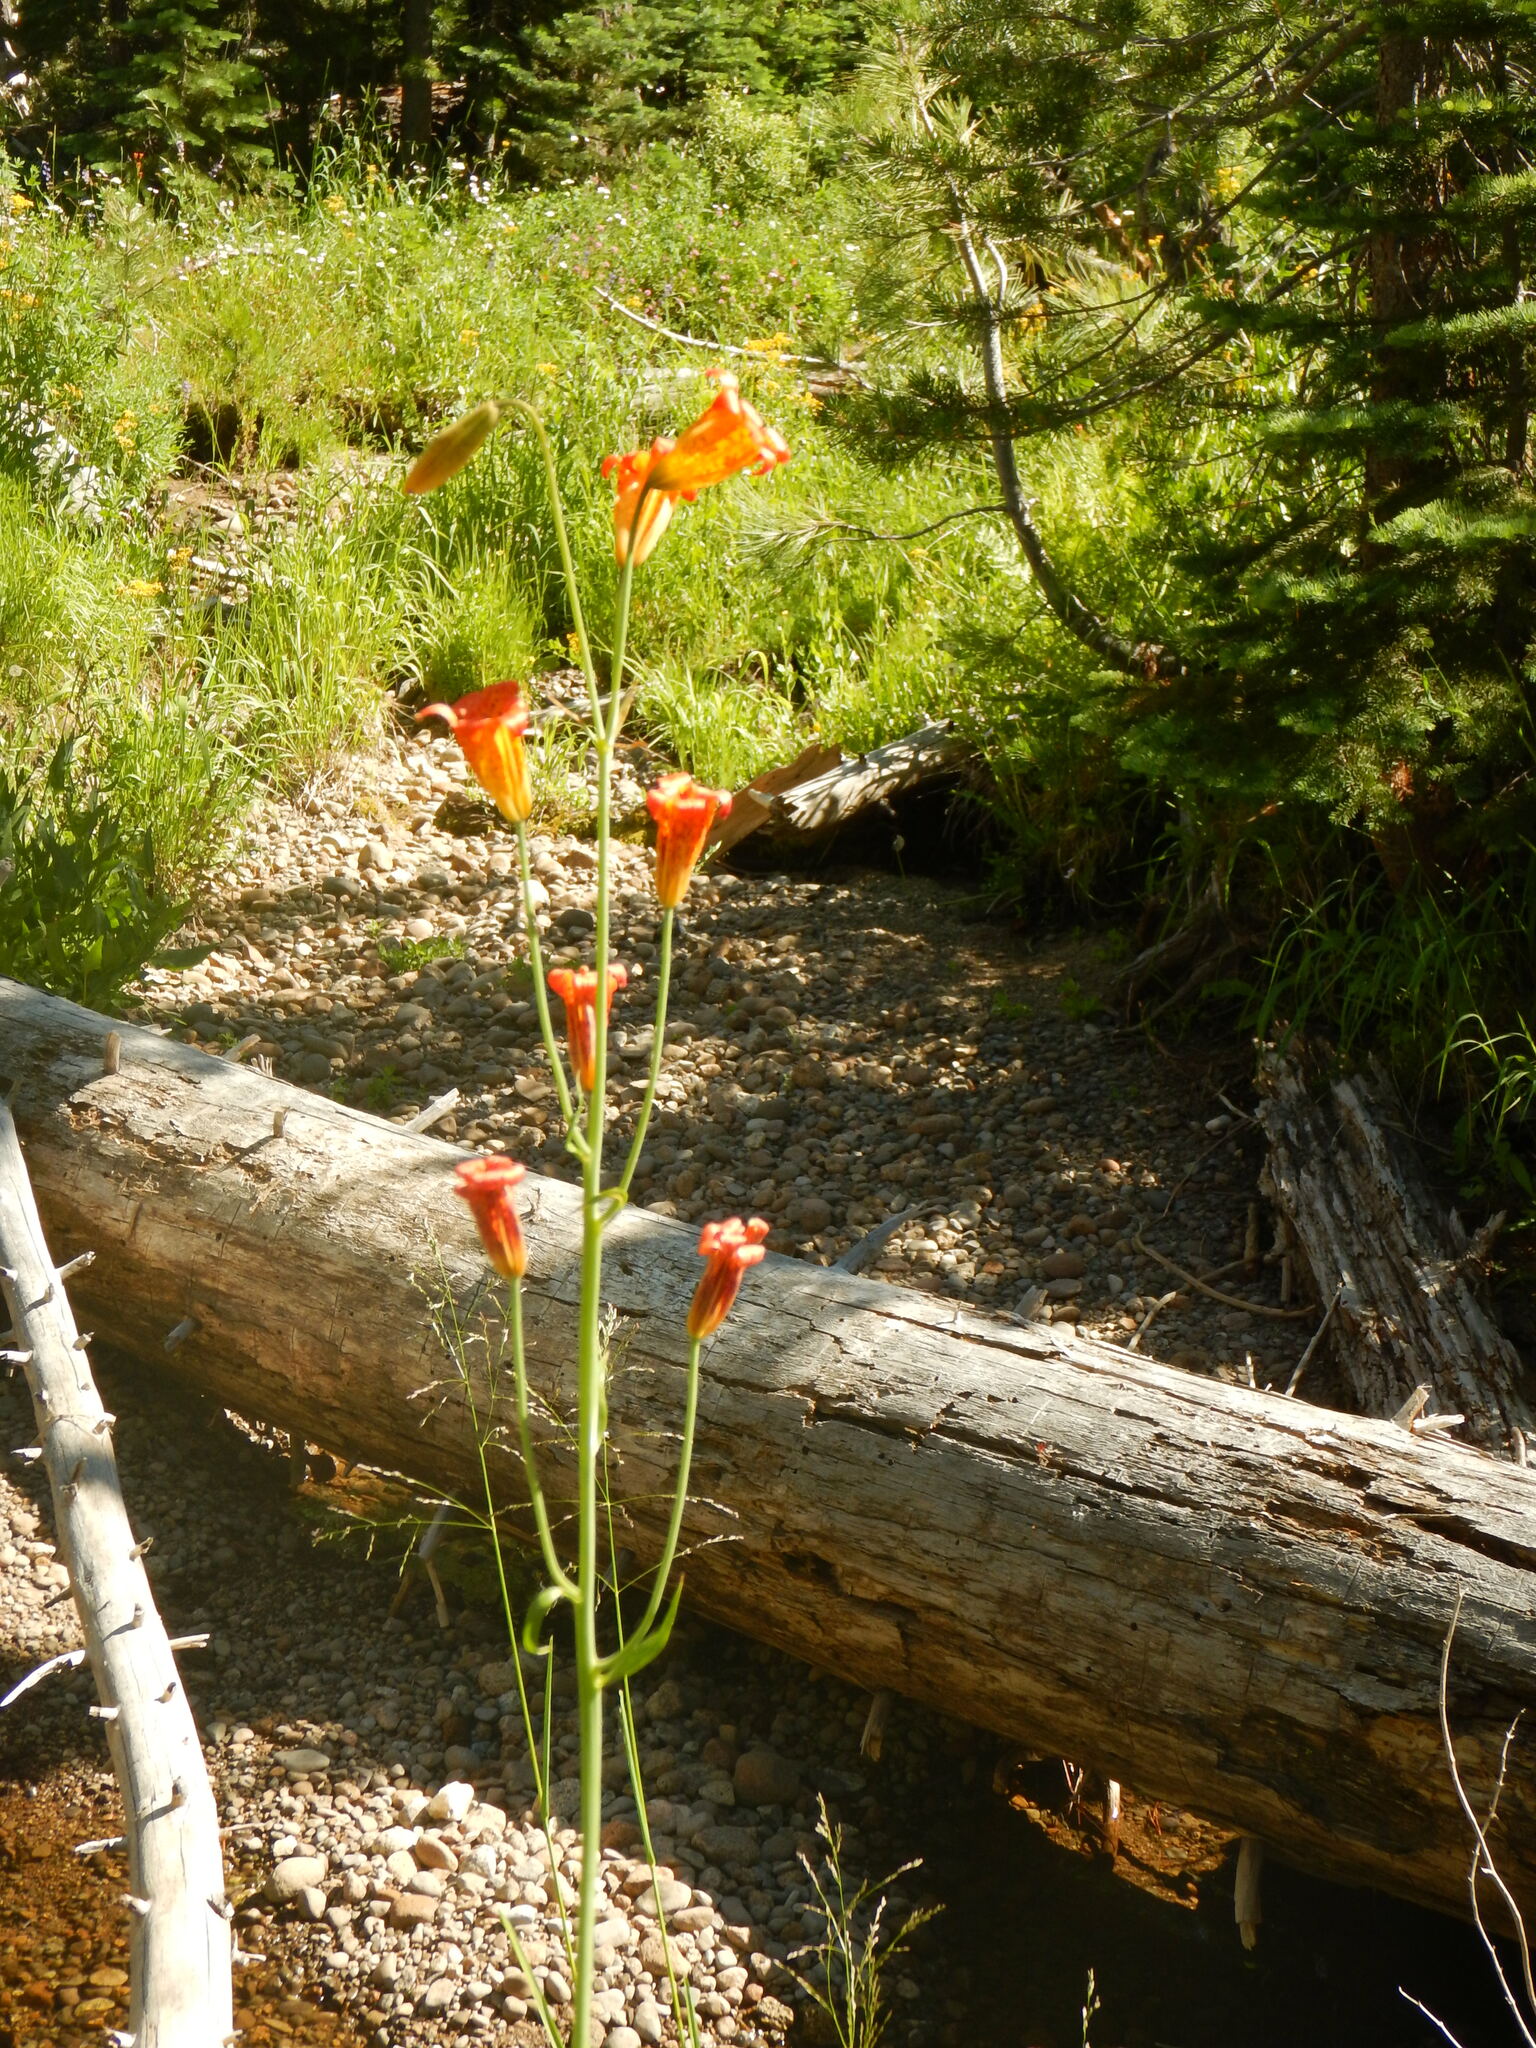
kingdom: Plantae
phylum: Tracheophyta
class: Liliopsida
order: Liliales
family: Liliaceae
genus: Lilium
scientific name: Lilium parvum
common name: Alpine lily
